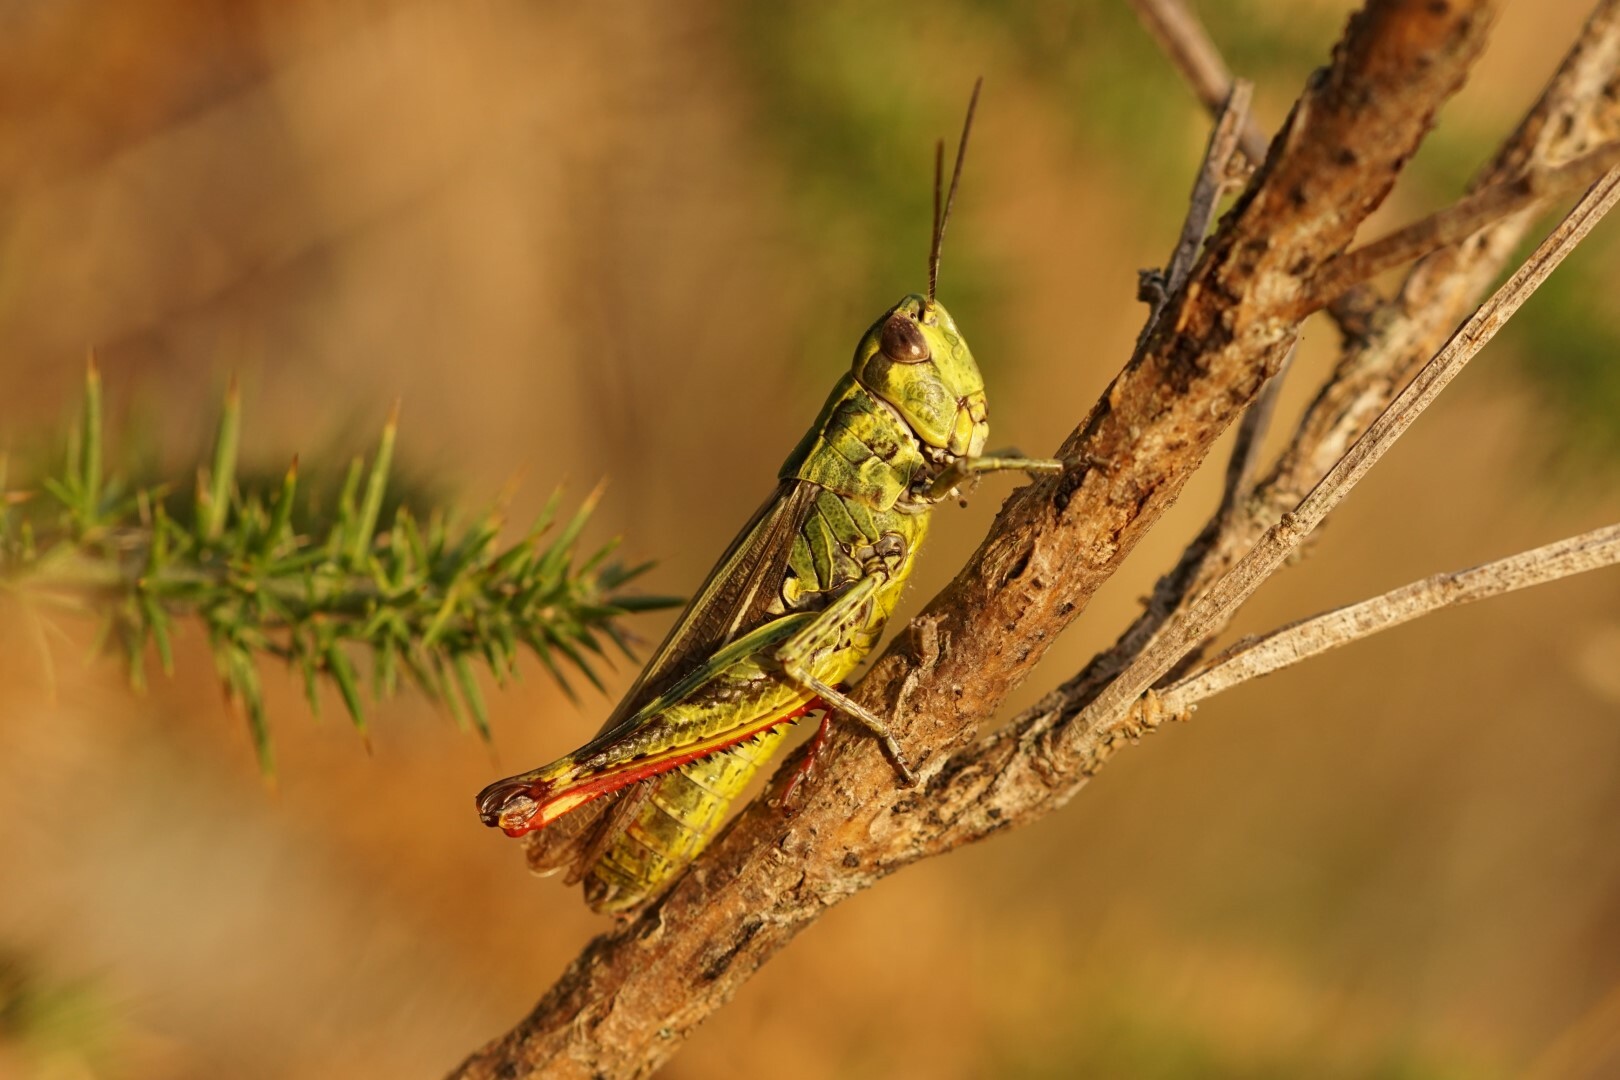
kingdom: Animalia
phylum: Arthropoda
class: Insecta
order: Orthoptera
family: Acrididae
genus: Chorthippus
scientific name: Chorthippus binotatus
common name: Two-marked grasshopper
